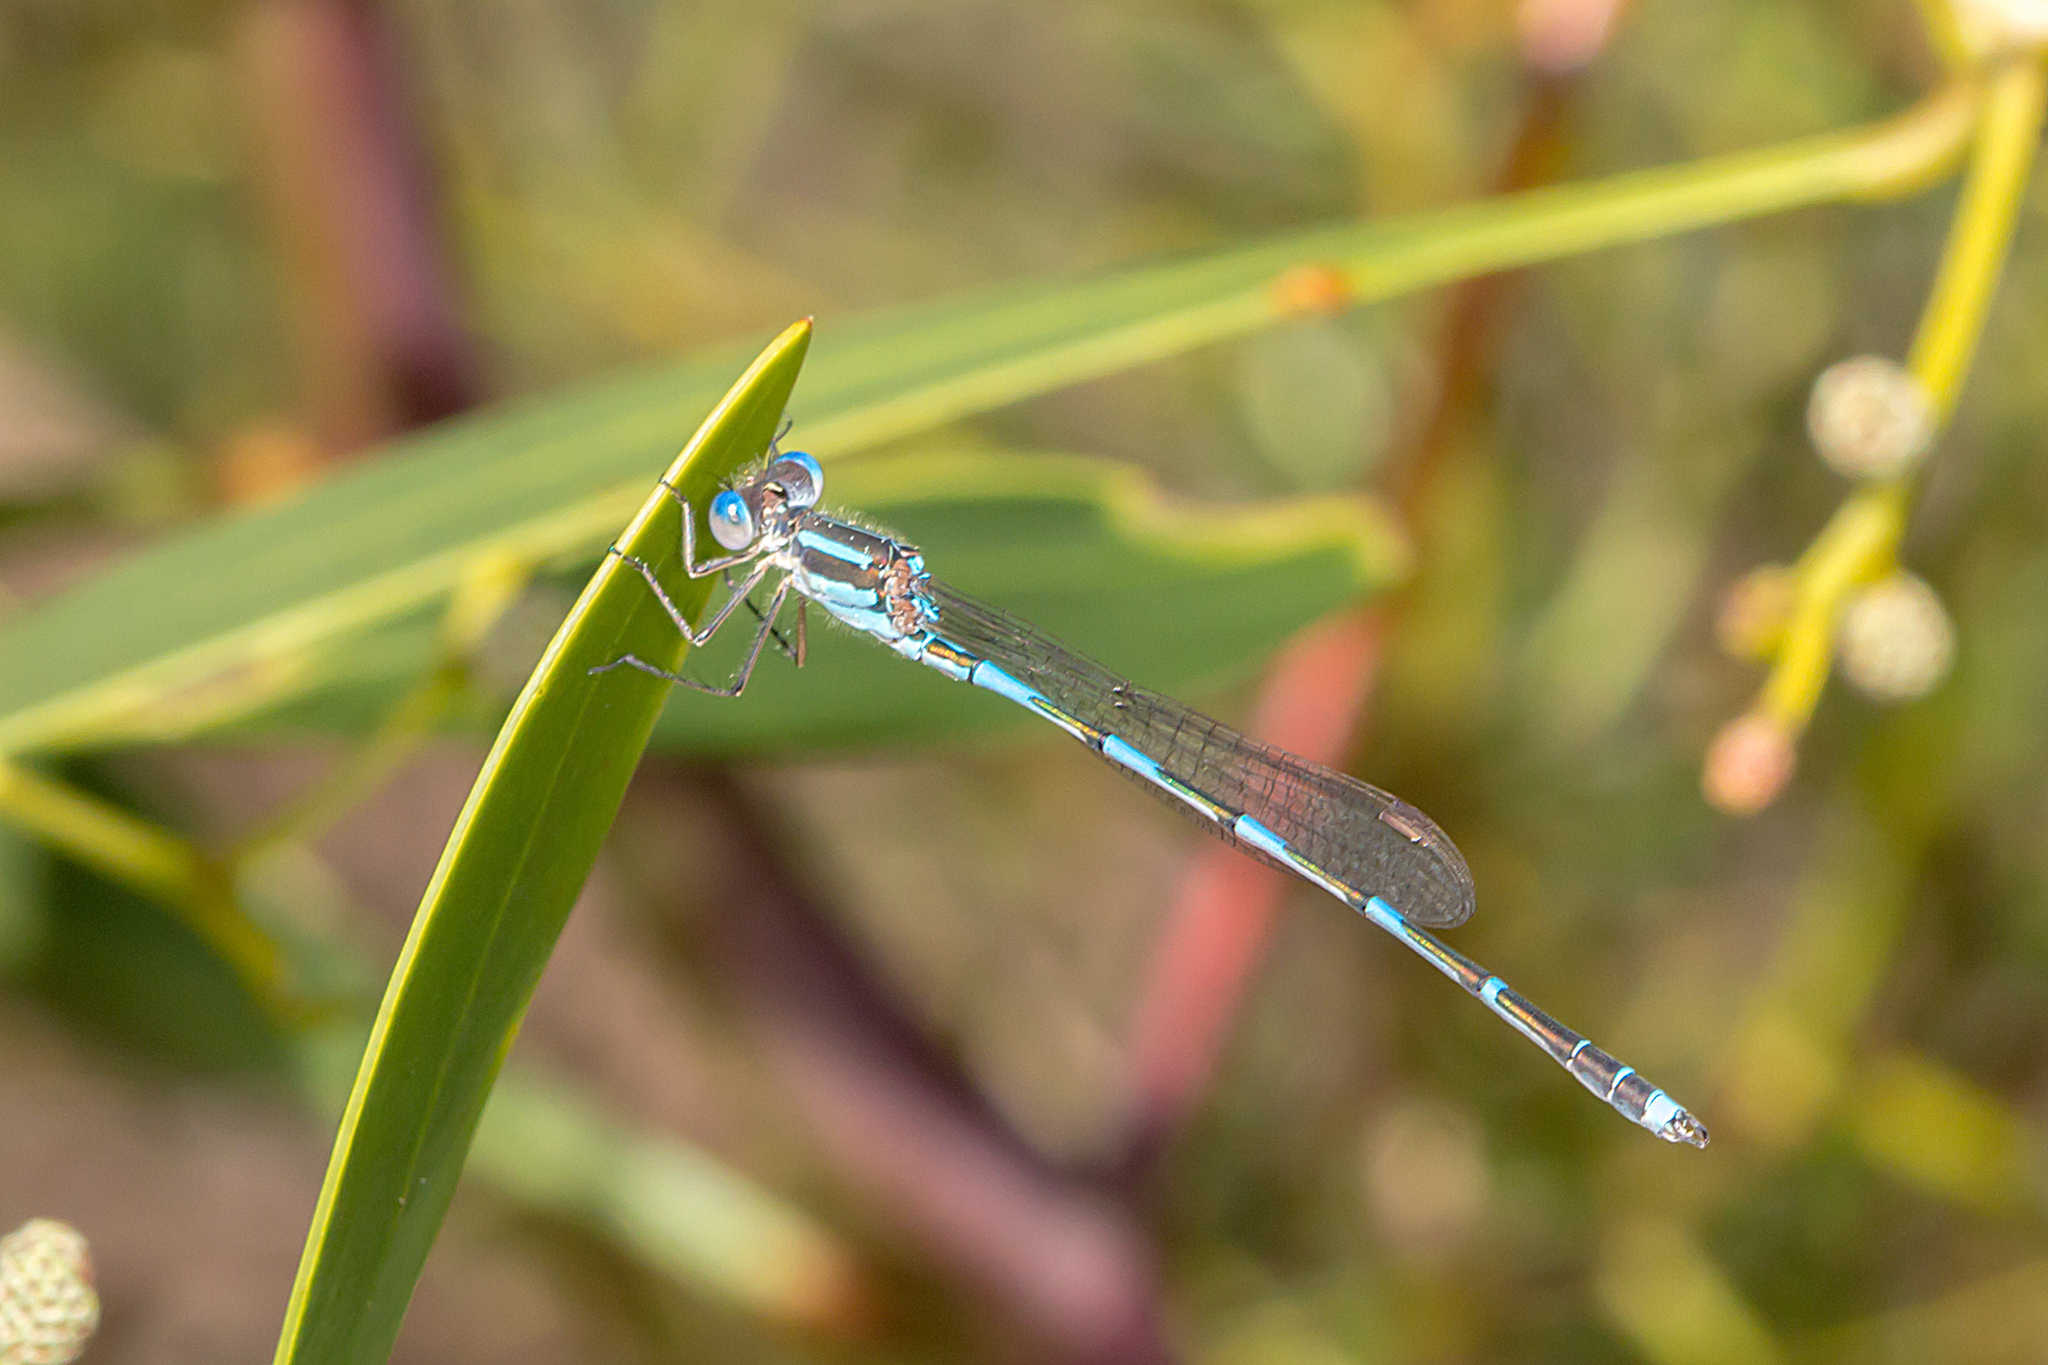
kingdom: Animalia
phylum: Arthropoda
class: Insecta
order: Odonata
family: Lestidae
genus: Austrolestes
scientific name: Austrolestes leda
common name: Wandering ringtail
